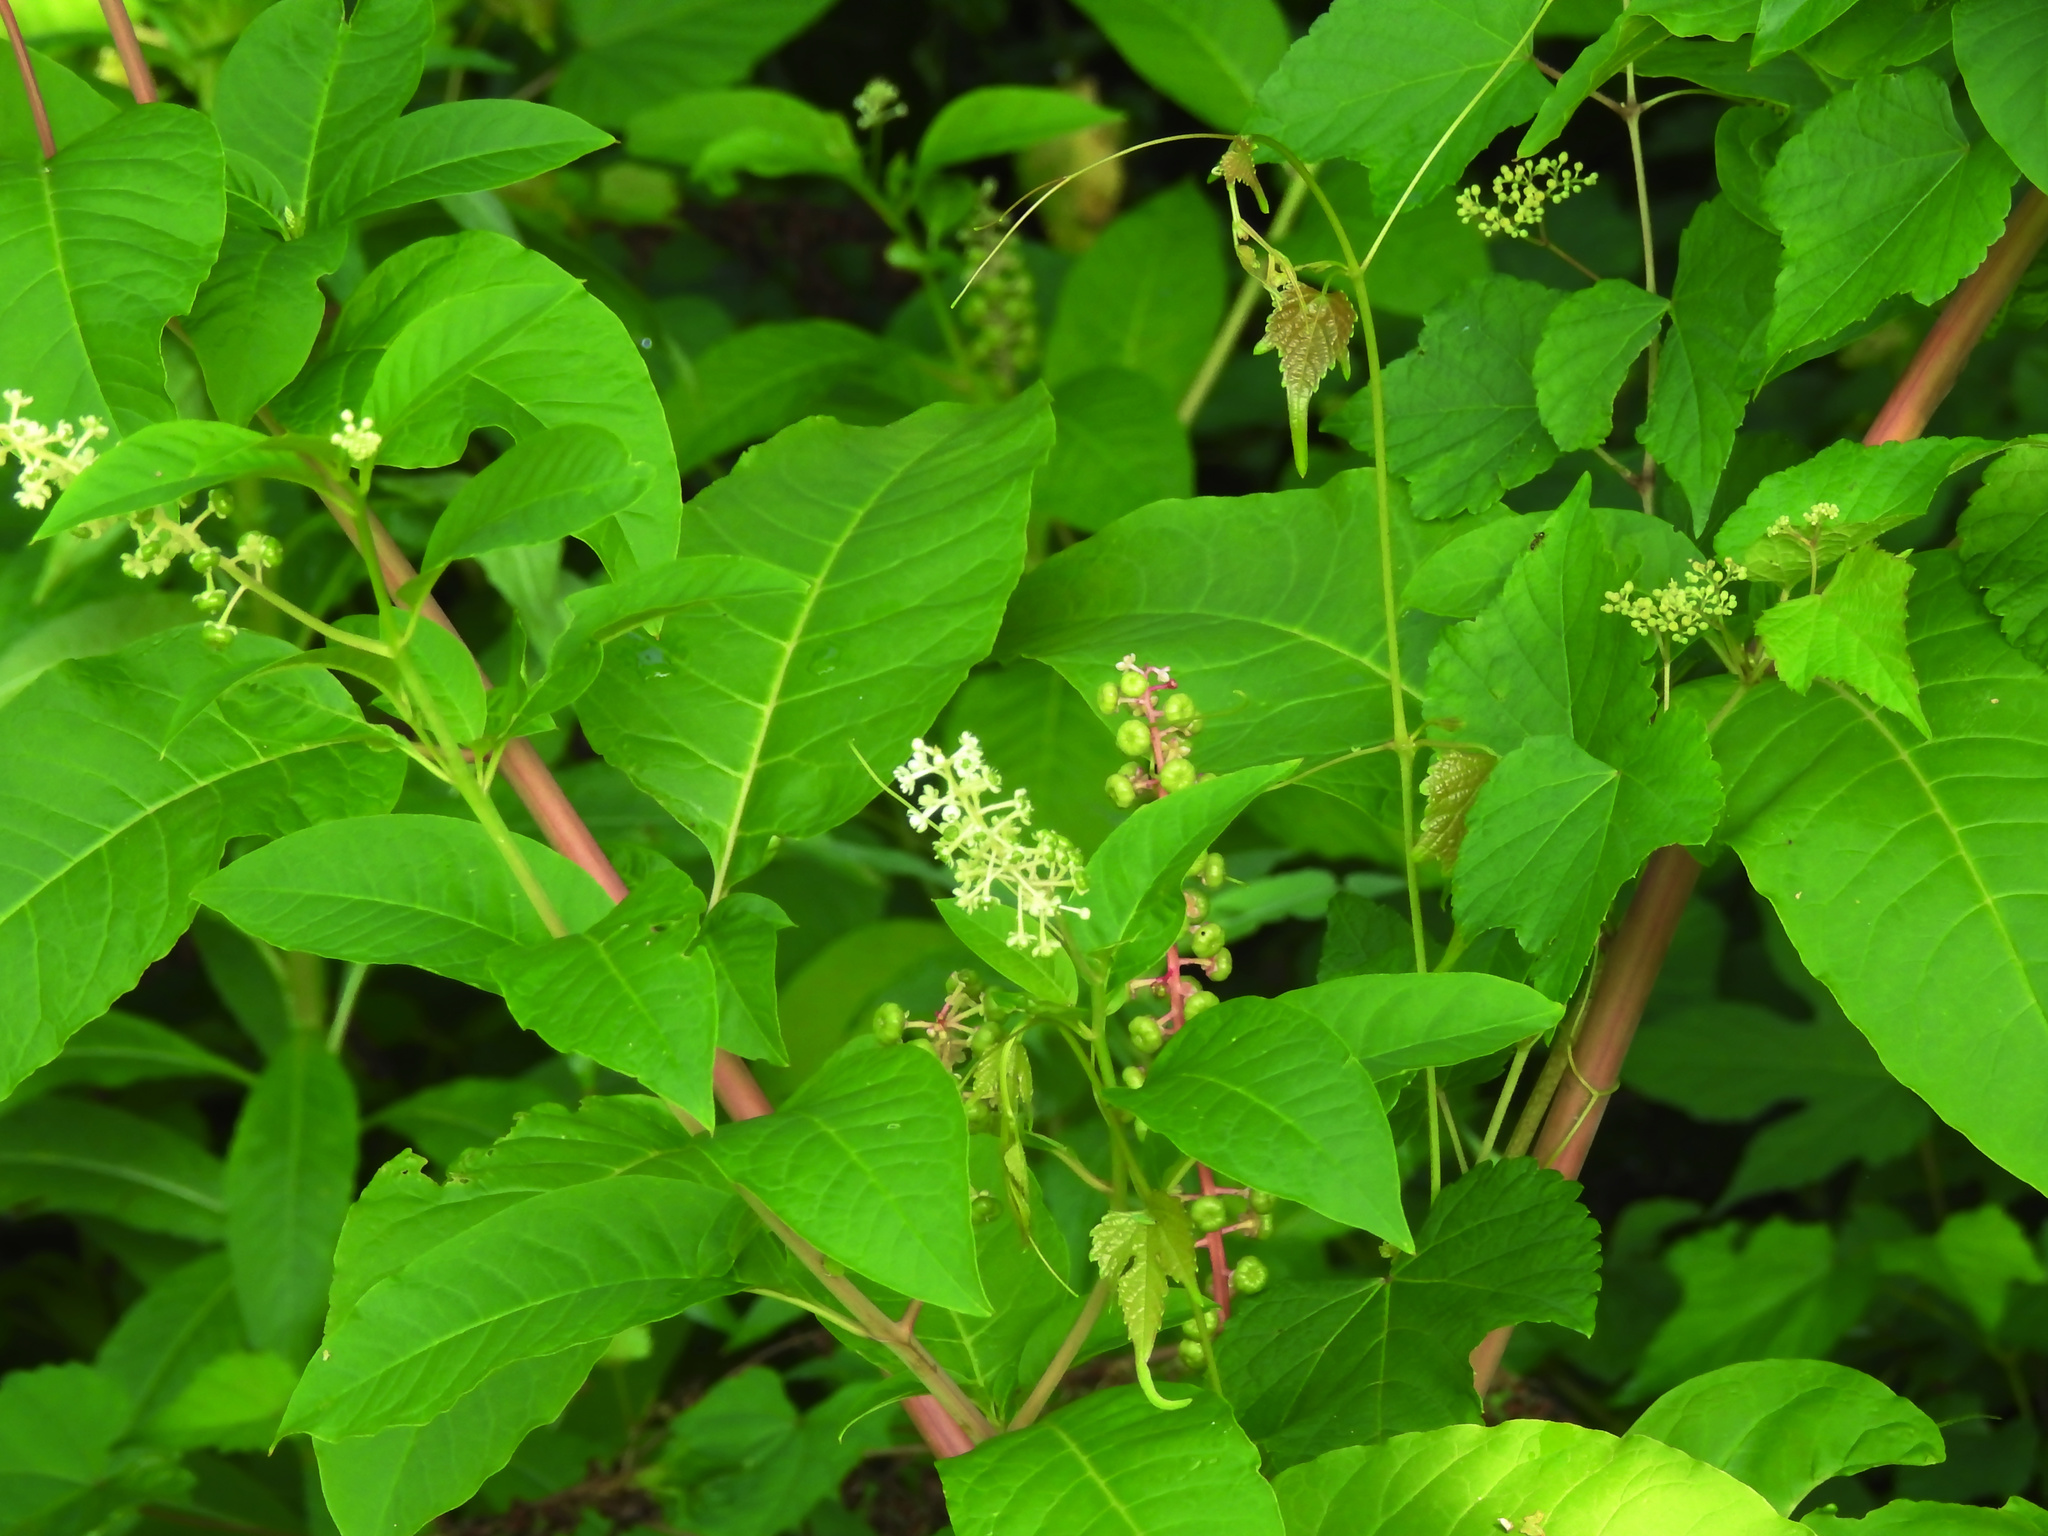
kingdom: Plantae
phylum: Tracheophyta
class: Magnoliopsida
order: Caryophyllales
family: Phytolaccaceae
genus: Phytolacca
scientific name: Phytolacca americana
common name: American pokeweed
